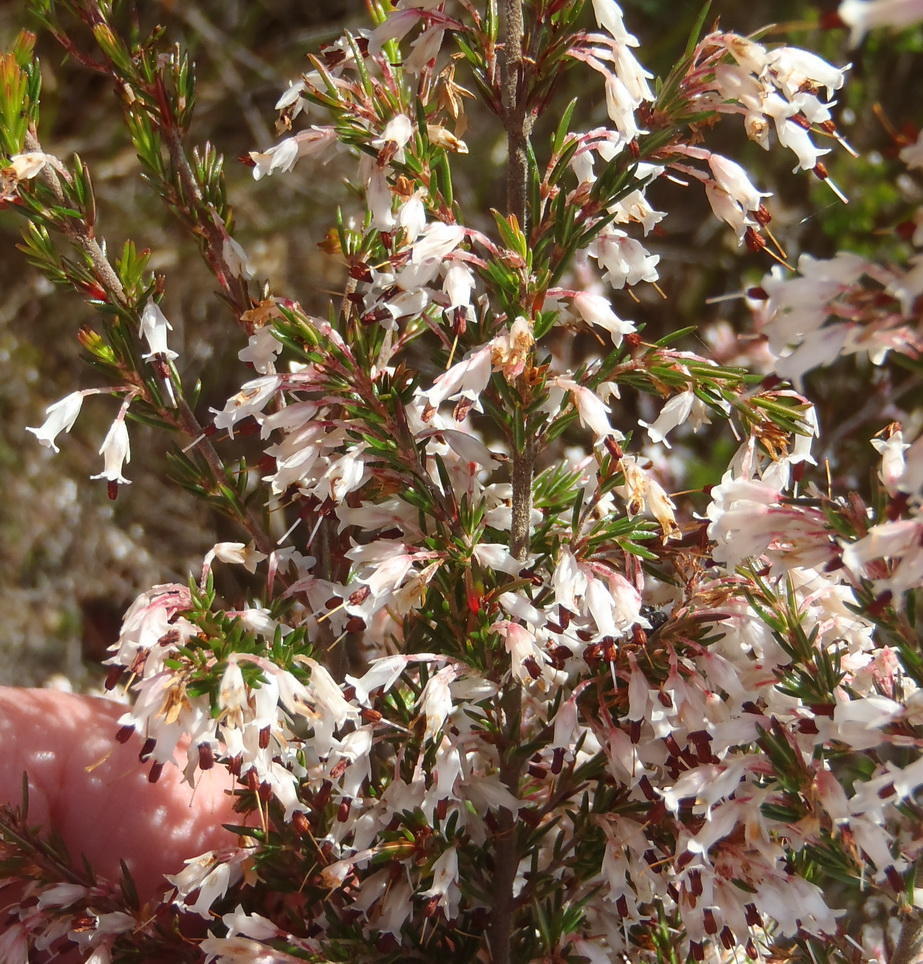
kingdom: Plantae
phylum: Tracheophyta
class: Magnoliopsida
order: Ericales
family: Ericaceae
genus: Erica
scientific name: Erica fuscescens
